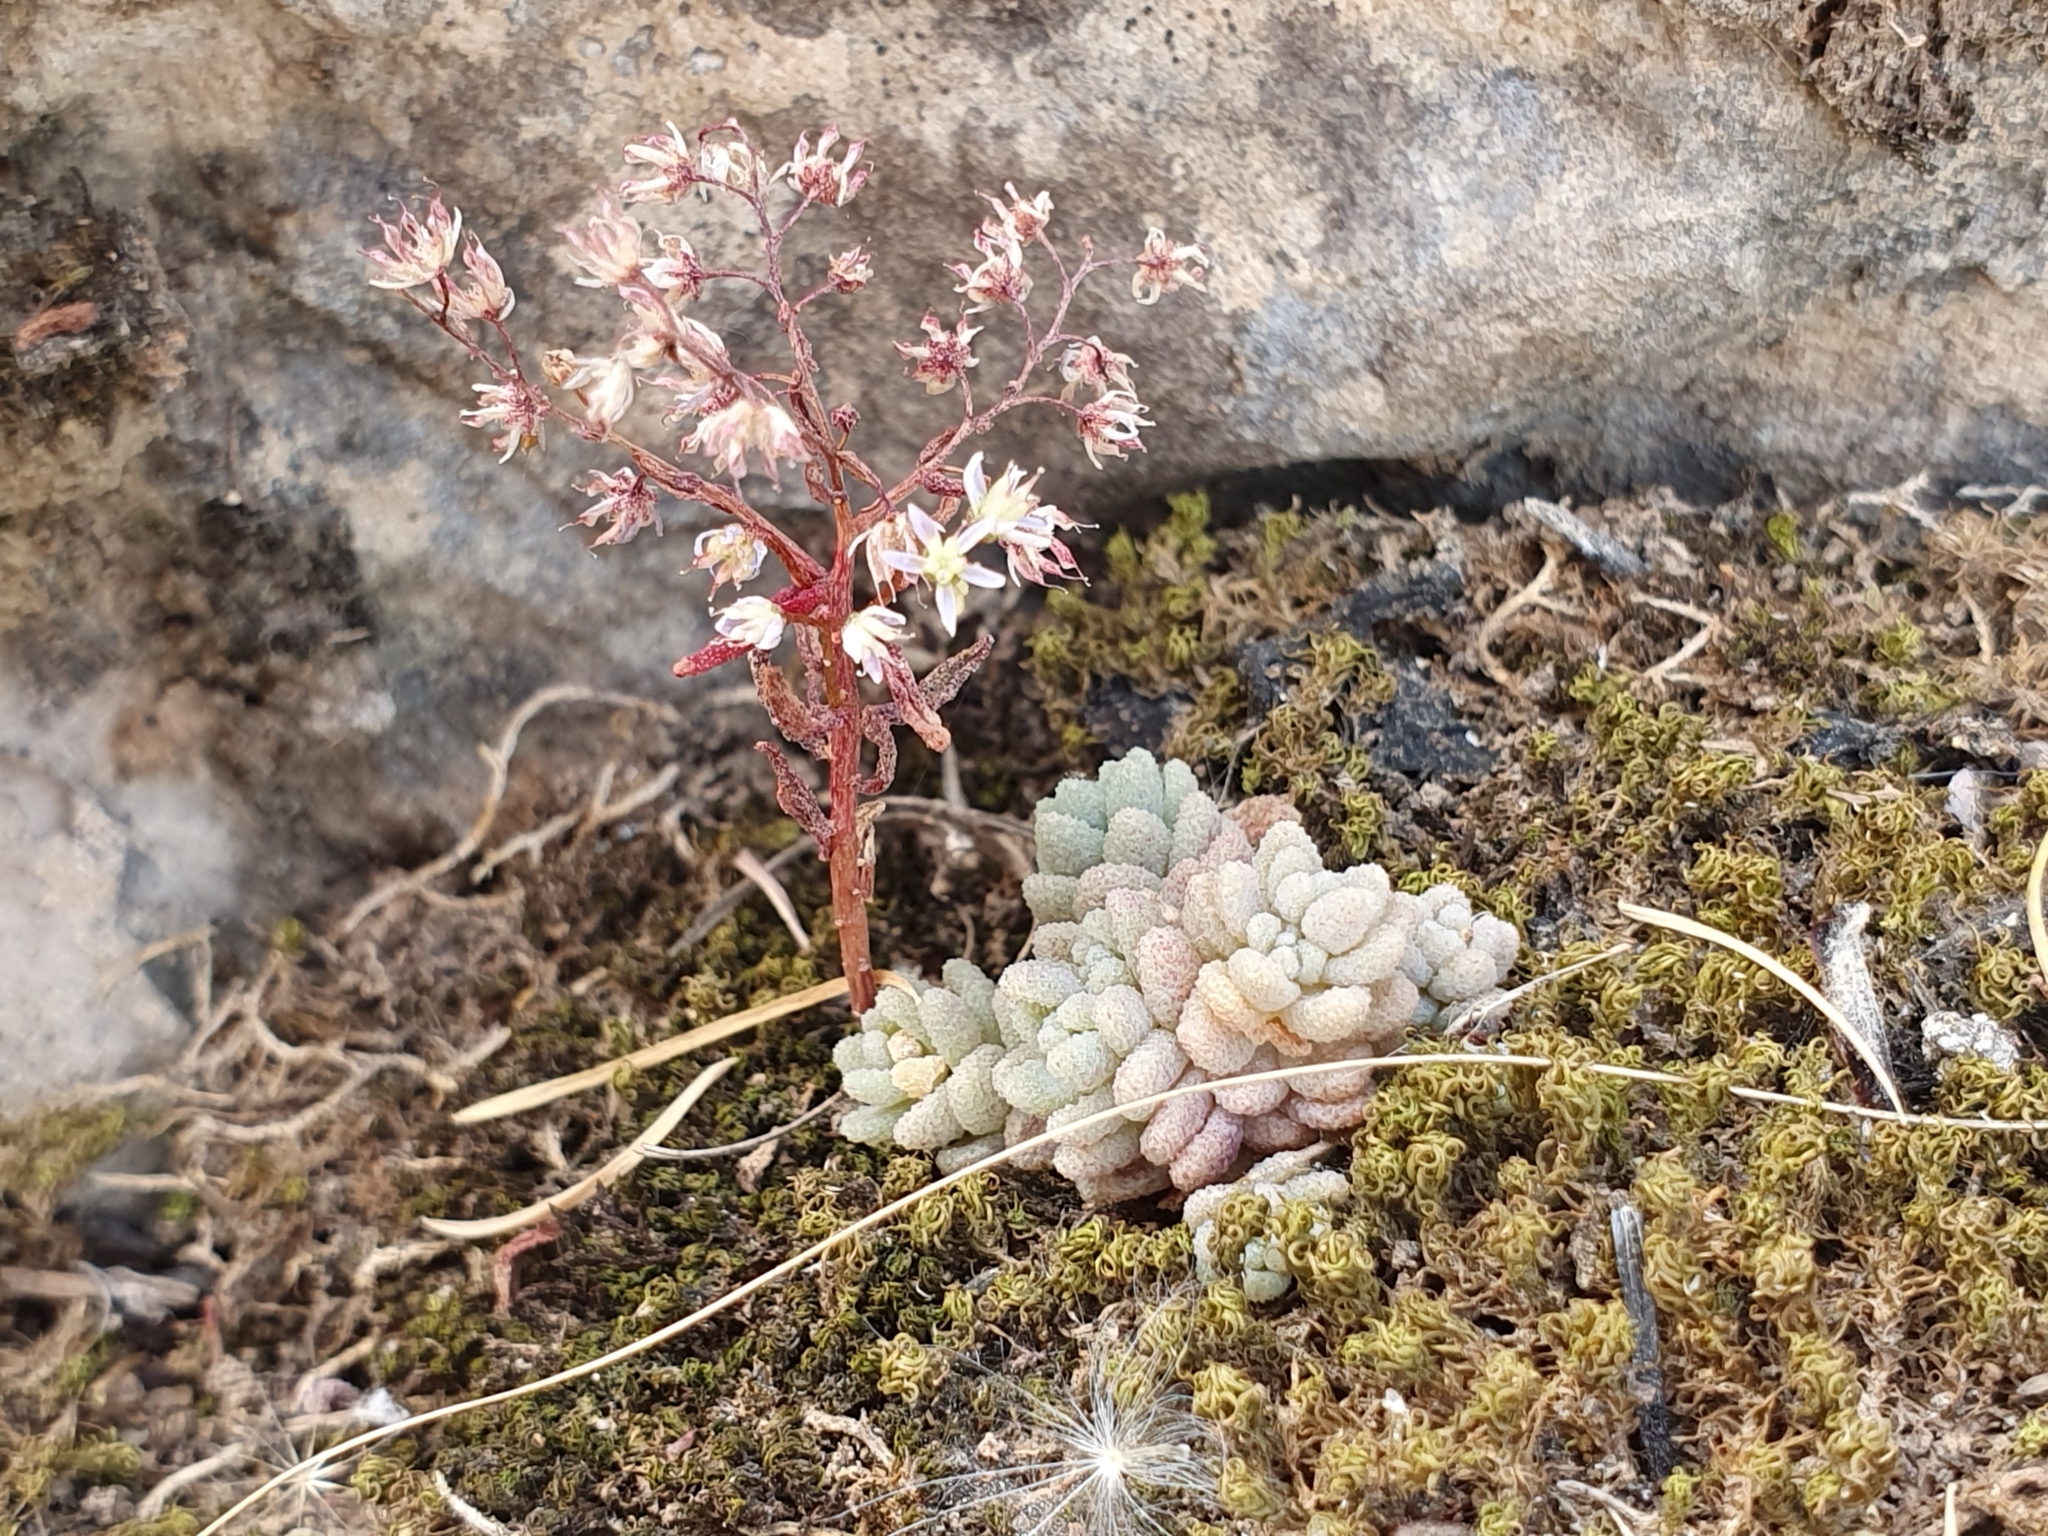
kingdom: Plantae
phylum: Tracheophyta
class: Magnoliopsida
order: Saxifragales
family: Crassulaceae
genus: Sedum
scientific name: Sedum dasyphyllum
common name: Thick-leaf stonecrop
